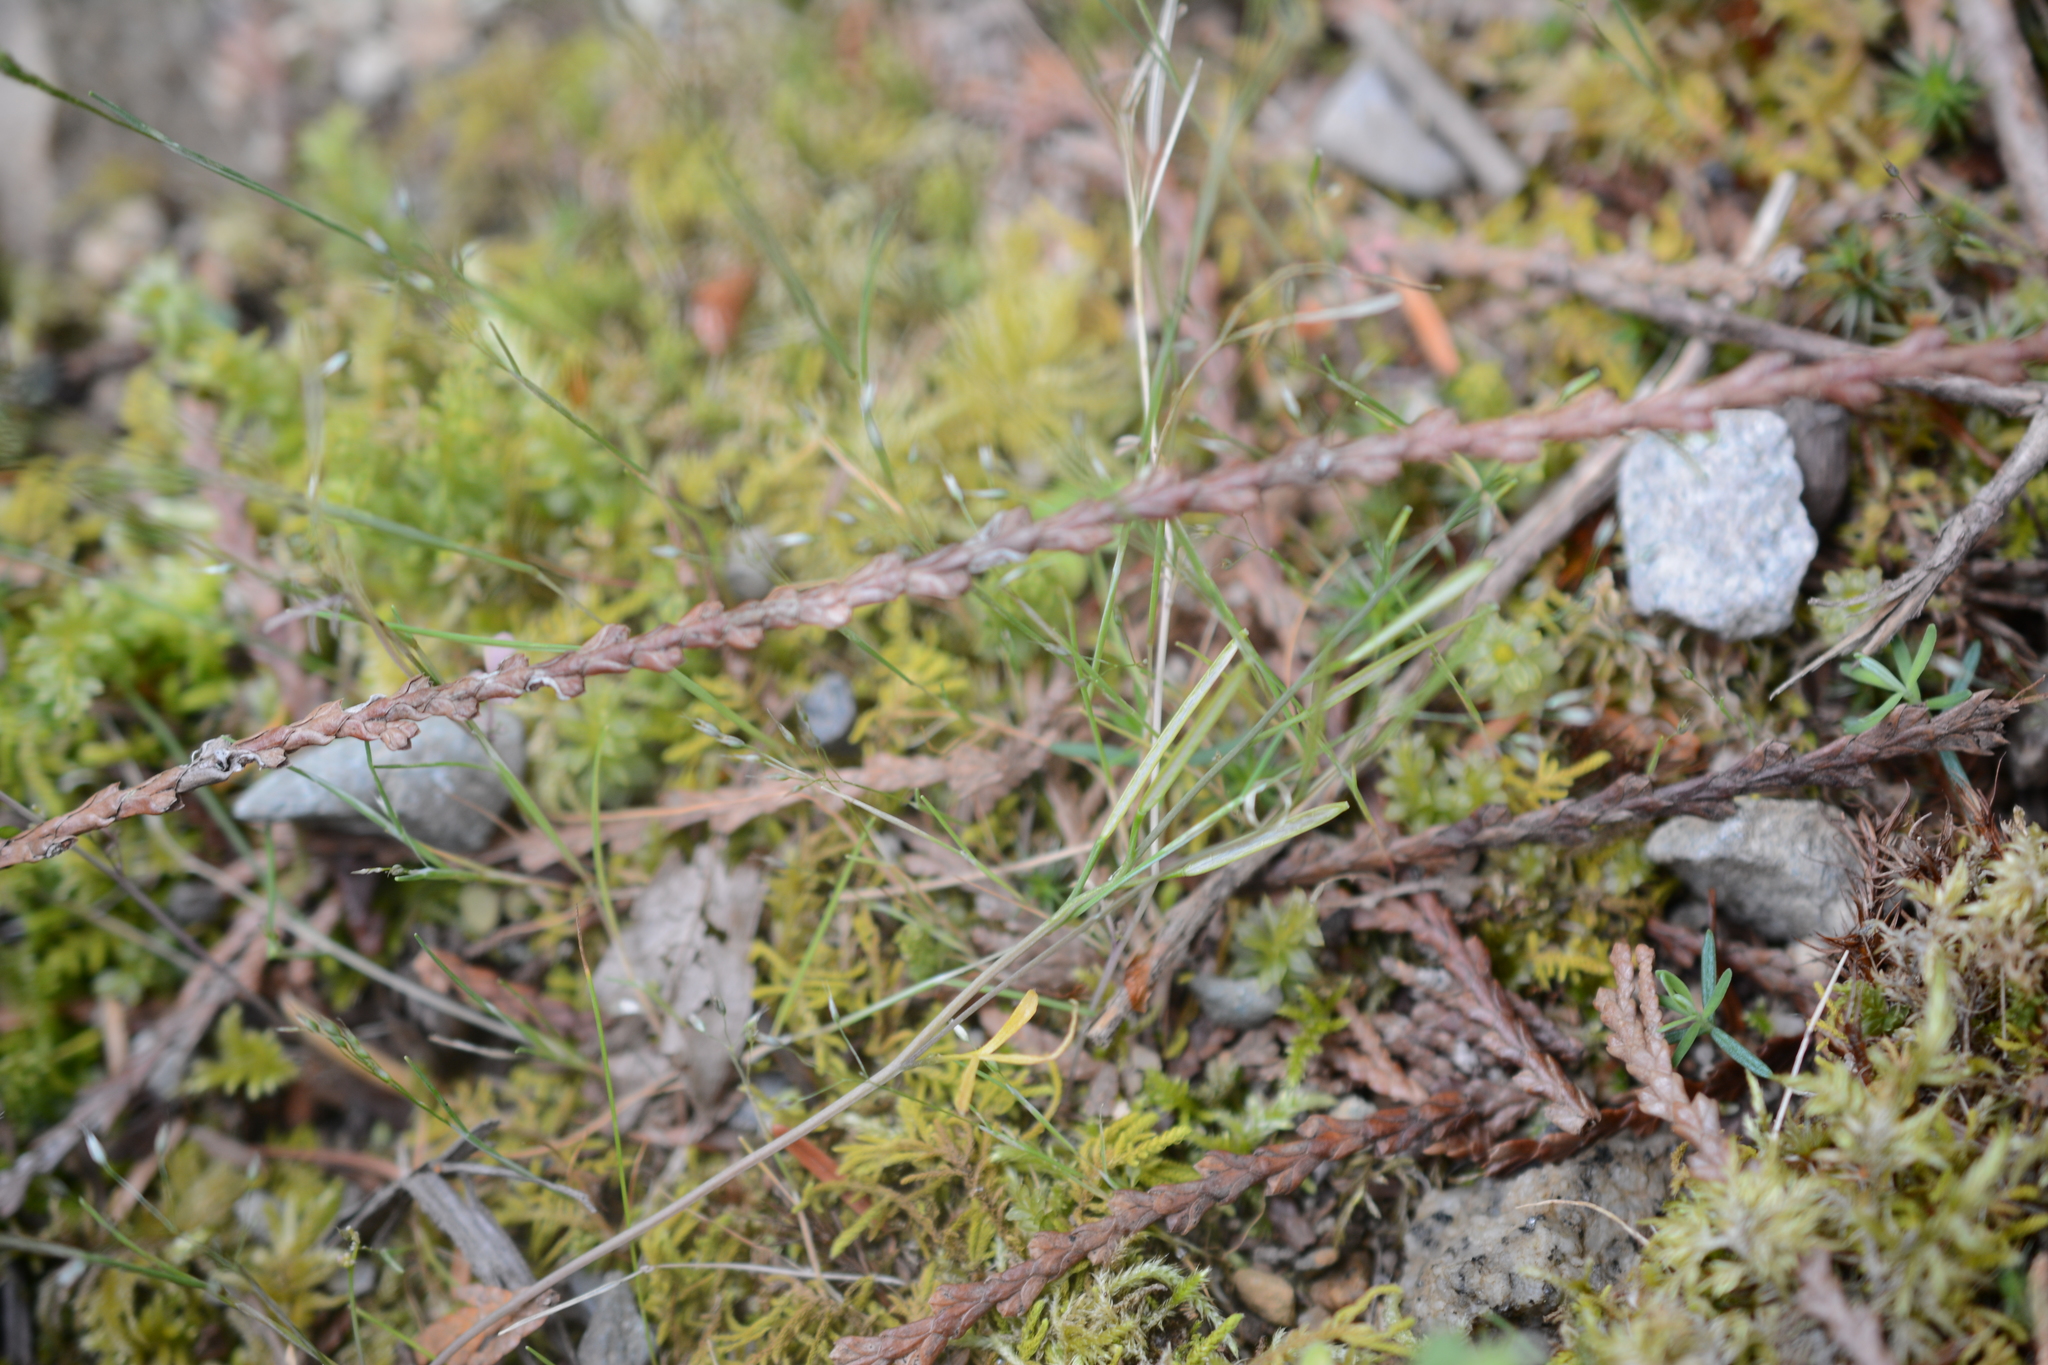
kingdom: Plantae
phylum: Tracheophyta
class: Liliopsida
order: Poales
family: Poaceae
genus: Aira
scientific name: Aira caryophyllea
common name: Silver hairgrass
